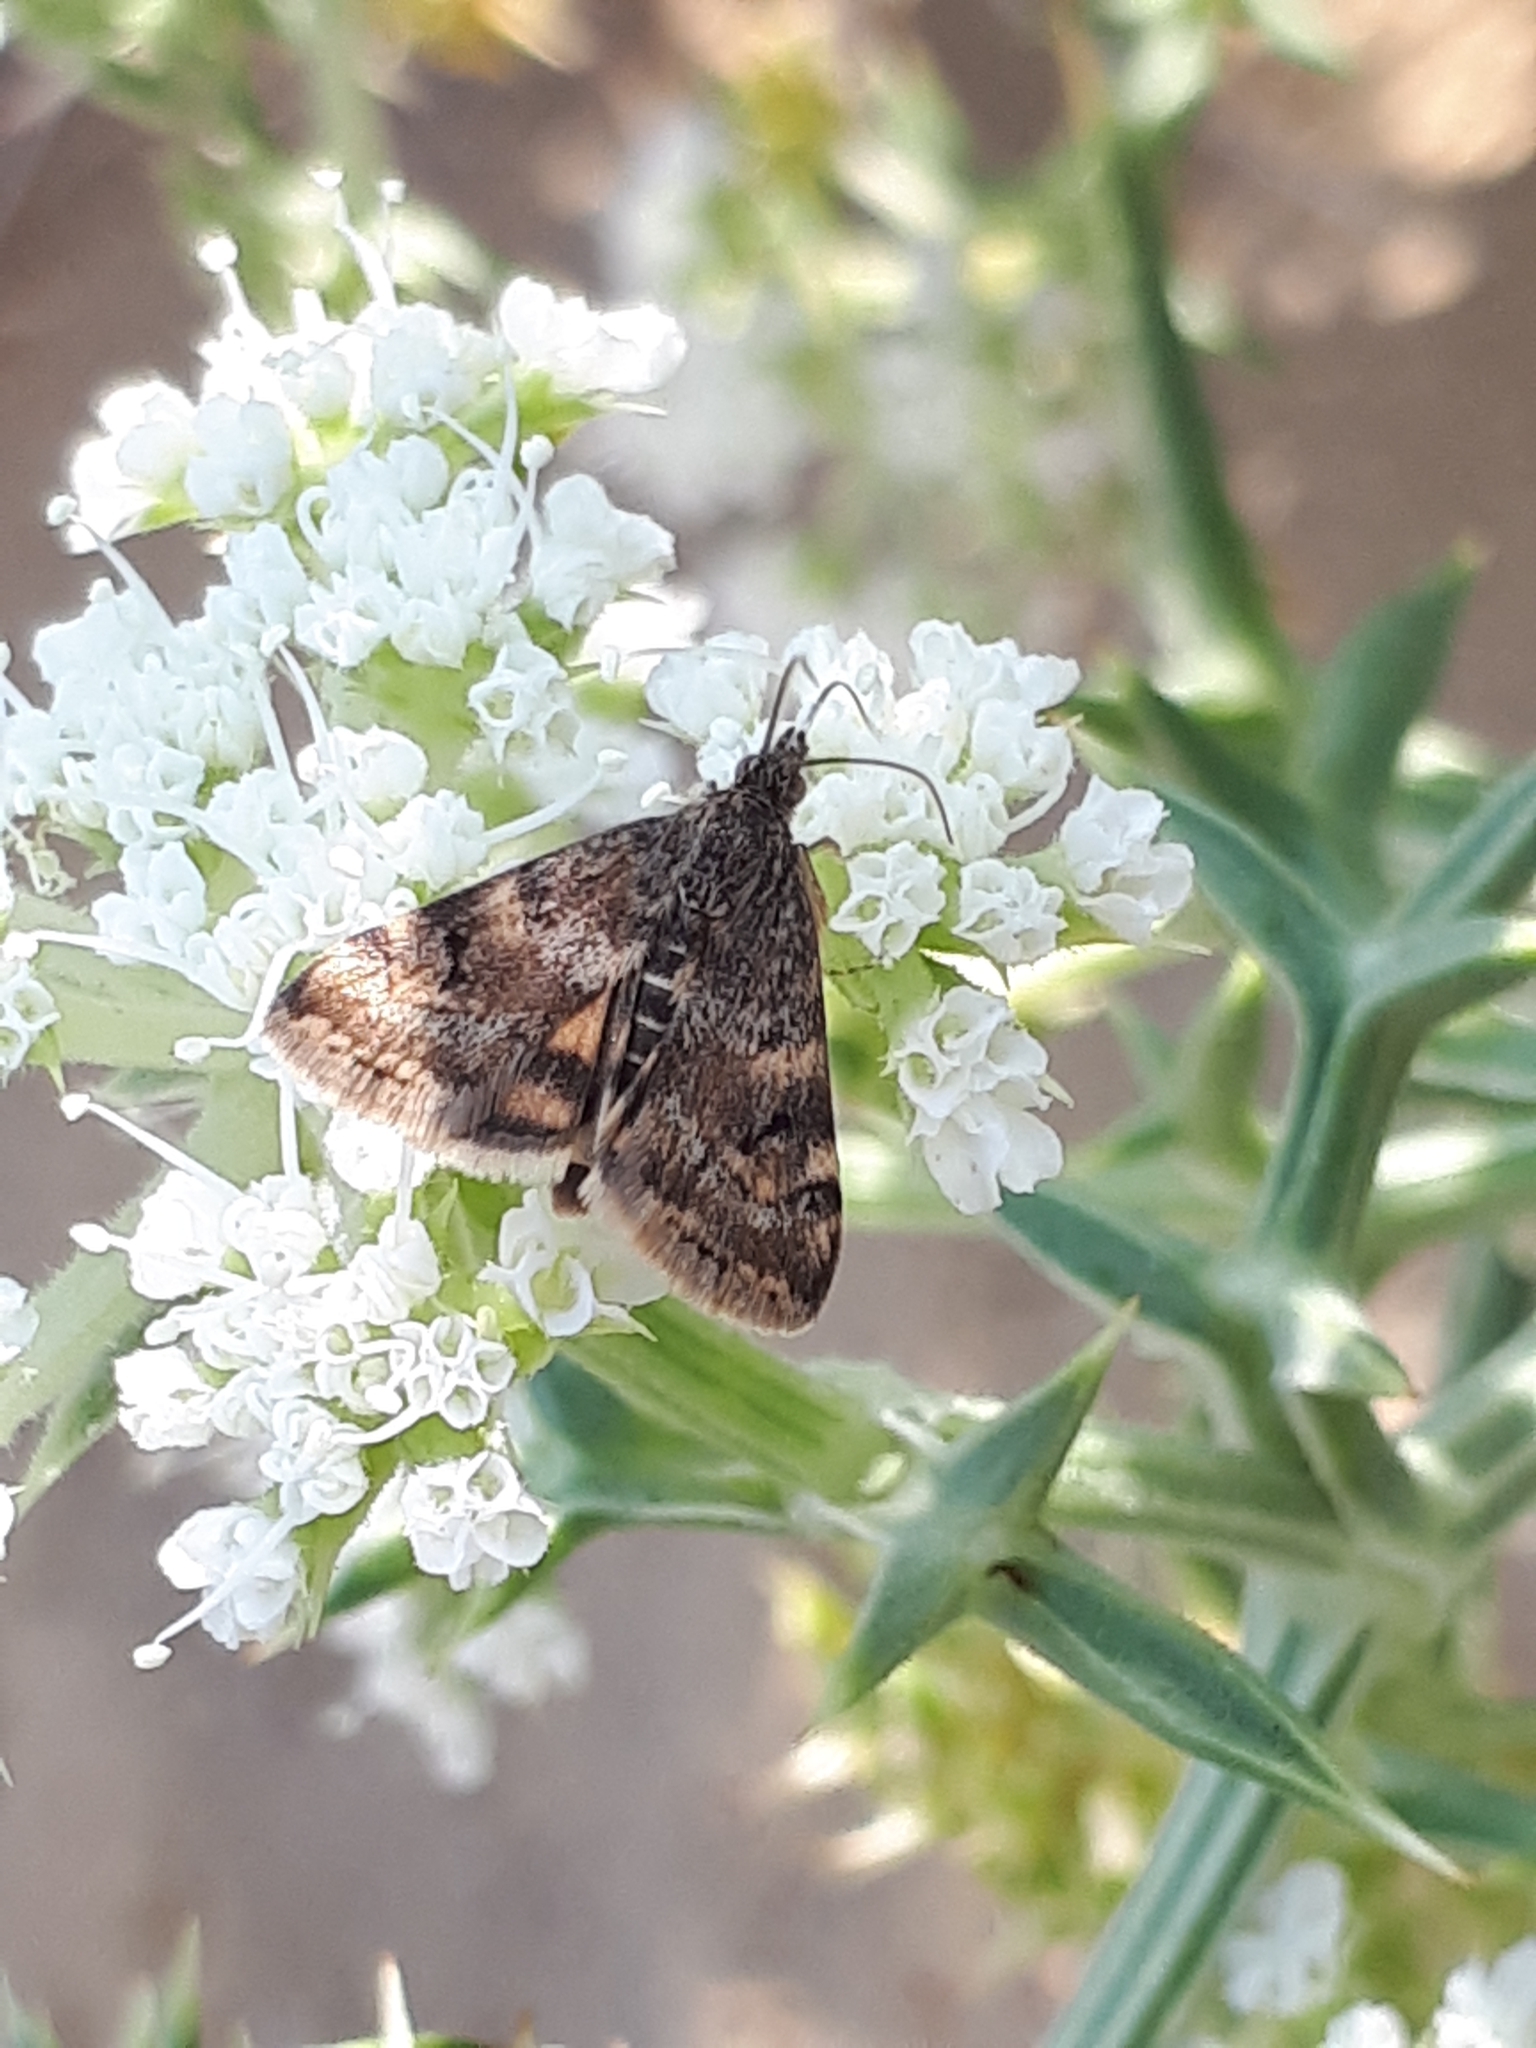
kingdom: Animalia
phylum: Arthropoda
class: Insecta
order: Lepidoptera
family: Crambidae
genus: Noctuelia
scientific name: Noctuelia Aporodes floralis
